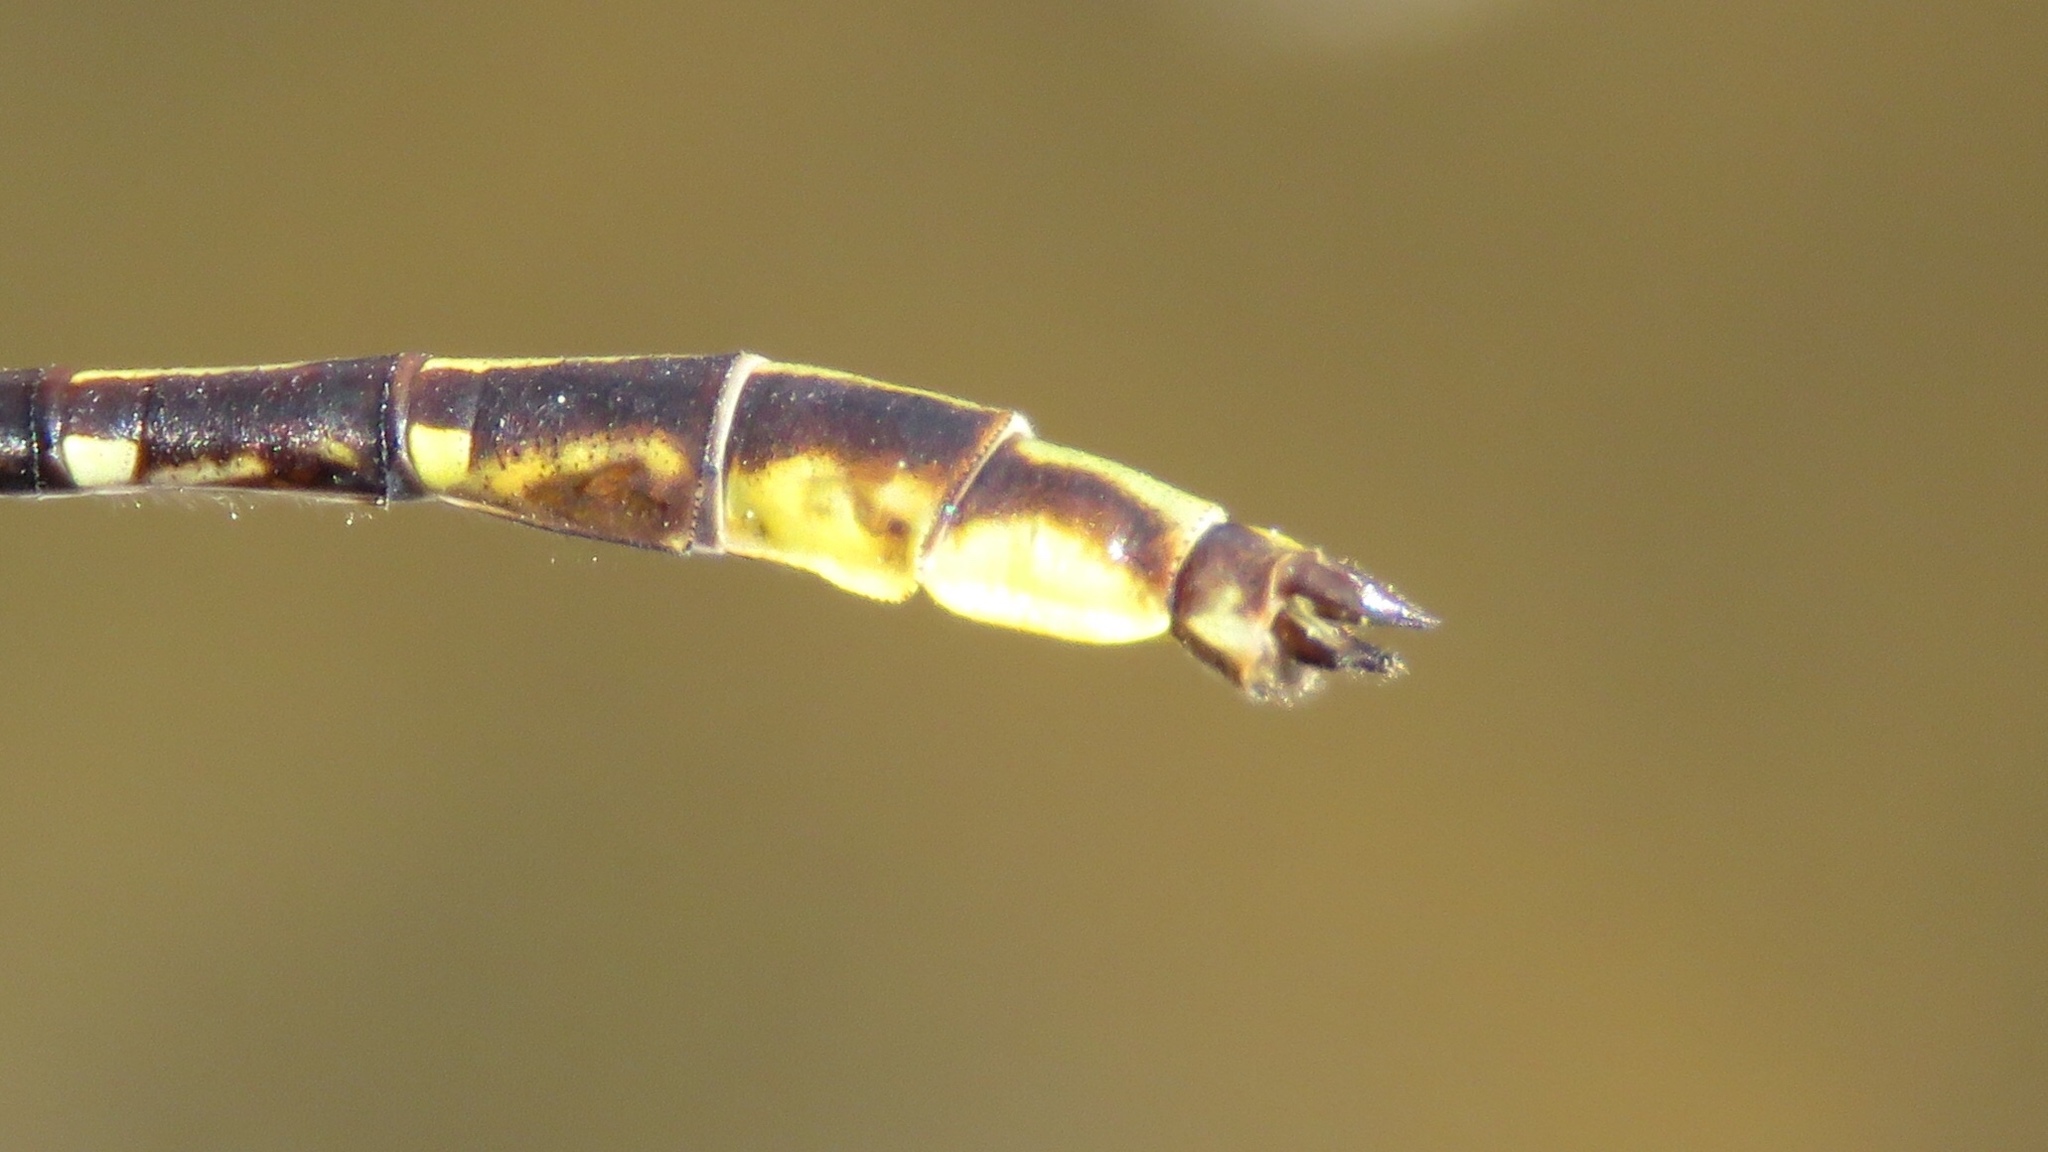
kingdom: Animalia
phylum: Arthropoda
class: Insecta
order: Odonata
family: Gomphidae
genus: Phanogomphus
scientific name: Phanogomphus exilis
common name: Lancet clubtail
